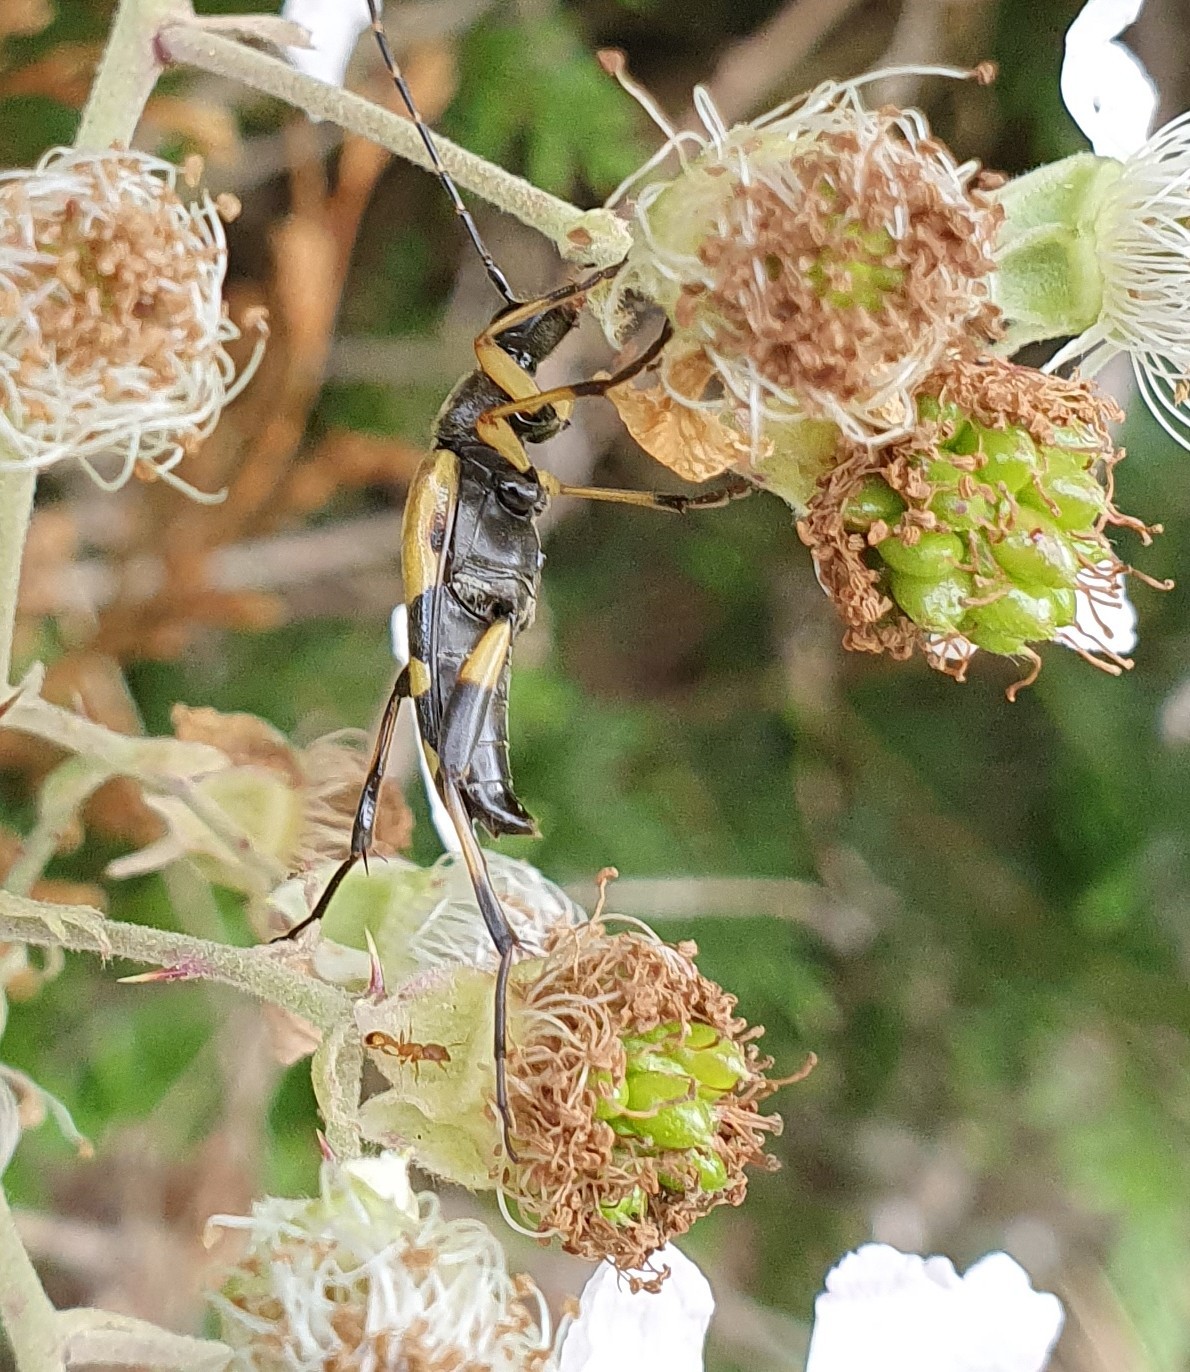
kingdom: Animalia
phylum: Arthropoda
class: Insecta
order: Coleoptera
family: Cerambycidae
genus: Rutpela
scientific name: Rutpela maculata
